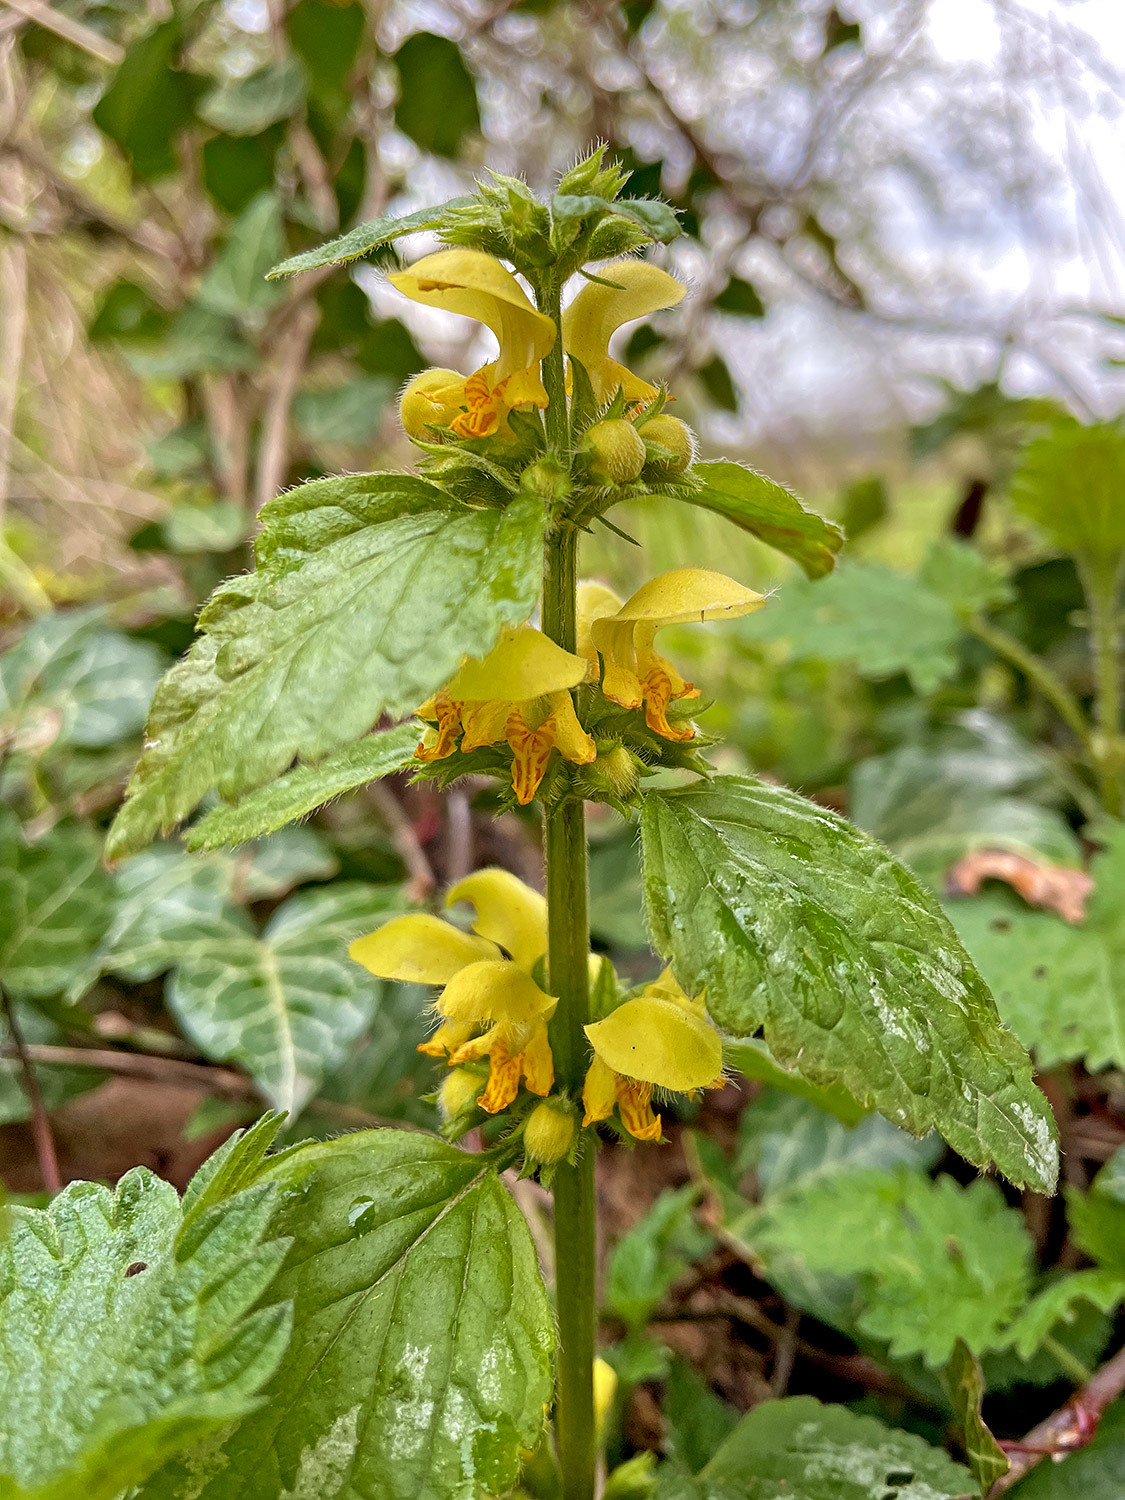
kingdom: Plantae
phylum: Tracheophyta
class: Magnoliopsida
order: Lamiales
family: Lamiaceae
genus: Lamium
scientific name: Lamium galeobdolon
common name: Yellow archangel
